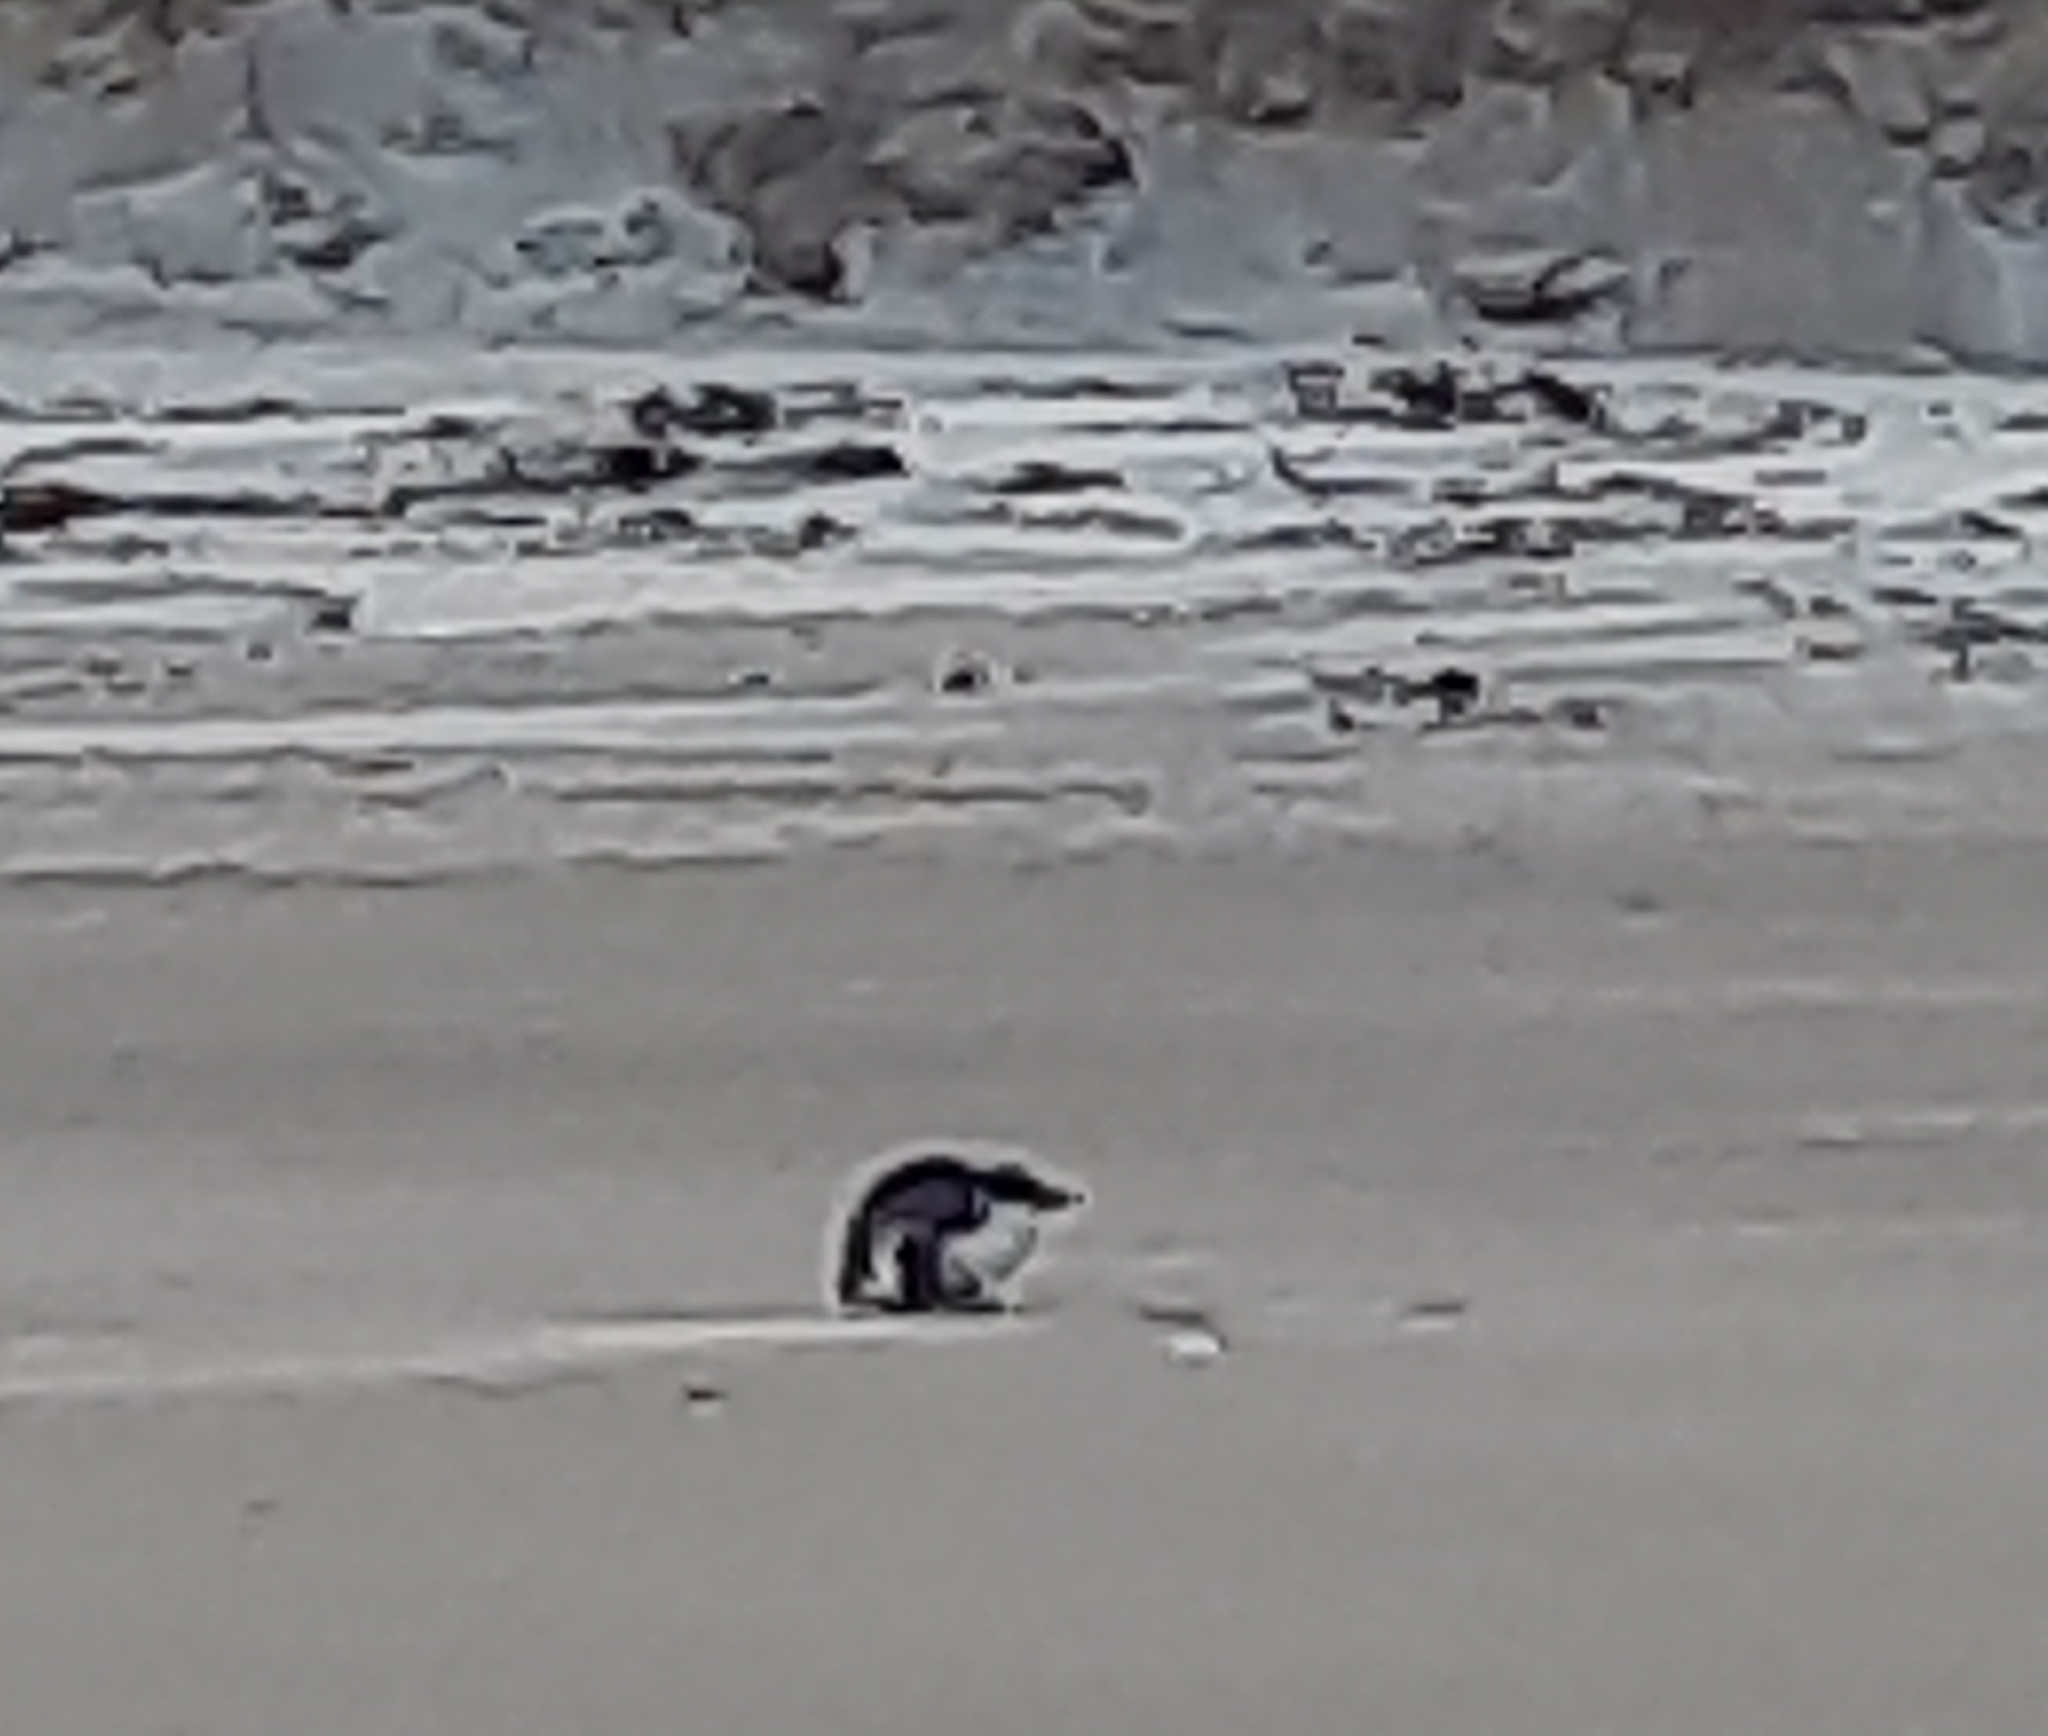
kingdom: Animalia
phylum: Chordata
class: Aves
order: Sphenisciformes
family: Spheniscidae
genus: Eudyptula
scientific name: Eudyptula minor
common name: Little penguin
